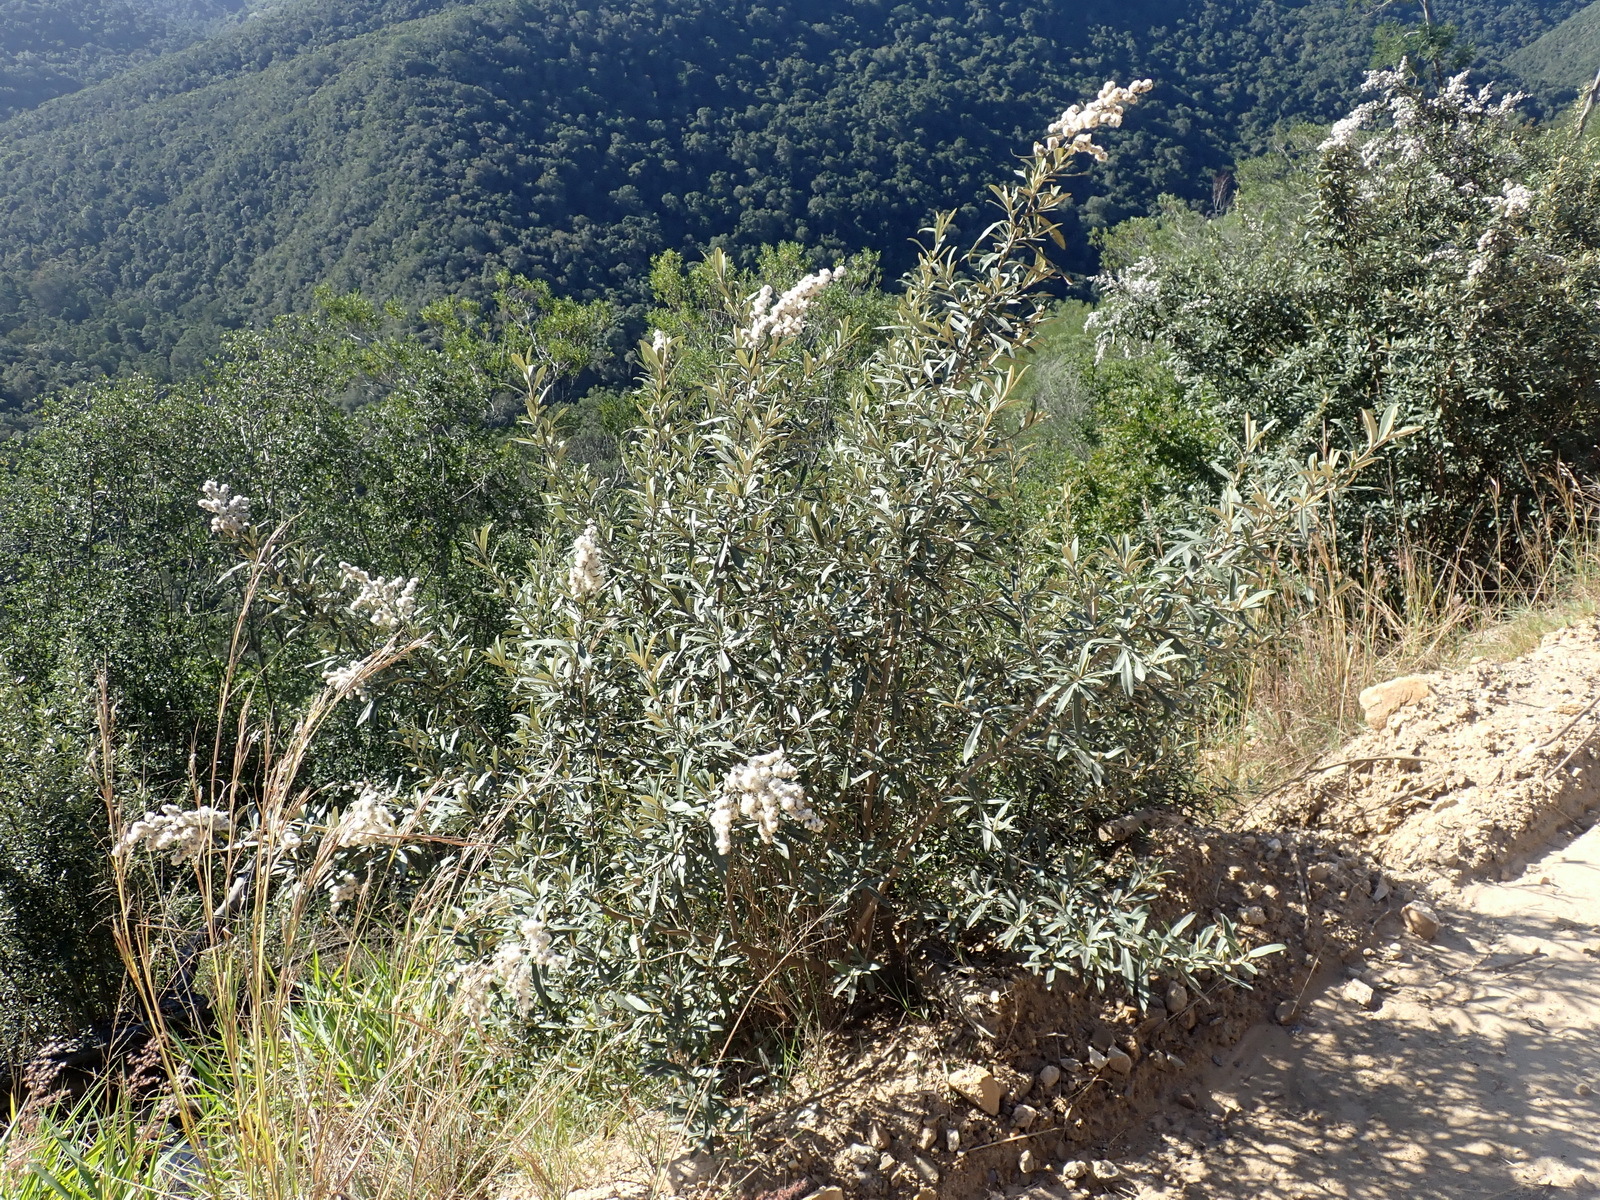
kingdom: Plantae
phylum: Tracheophyta
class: Magnoliopsida
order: Asterales
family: Asteraceae
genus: Tarchonanthus
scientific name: Tarchonanthus littoralis
